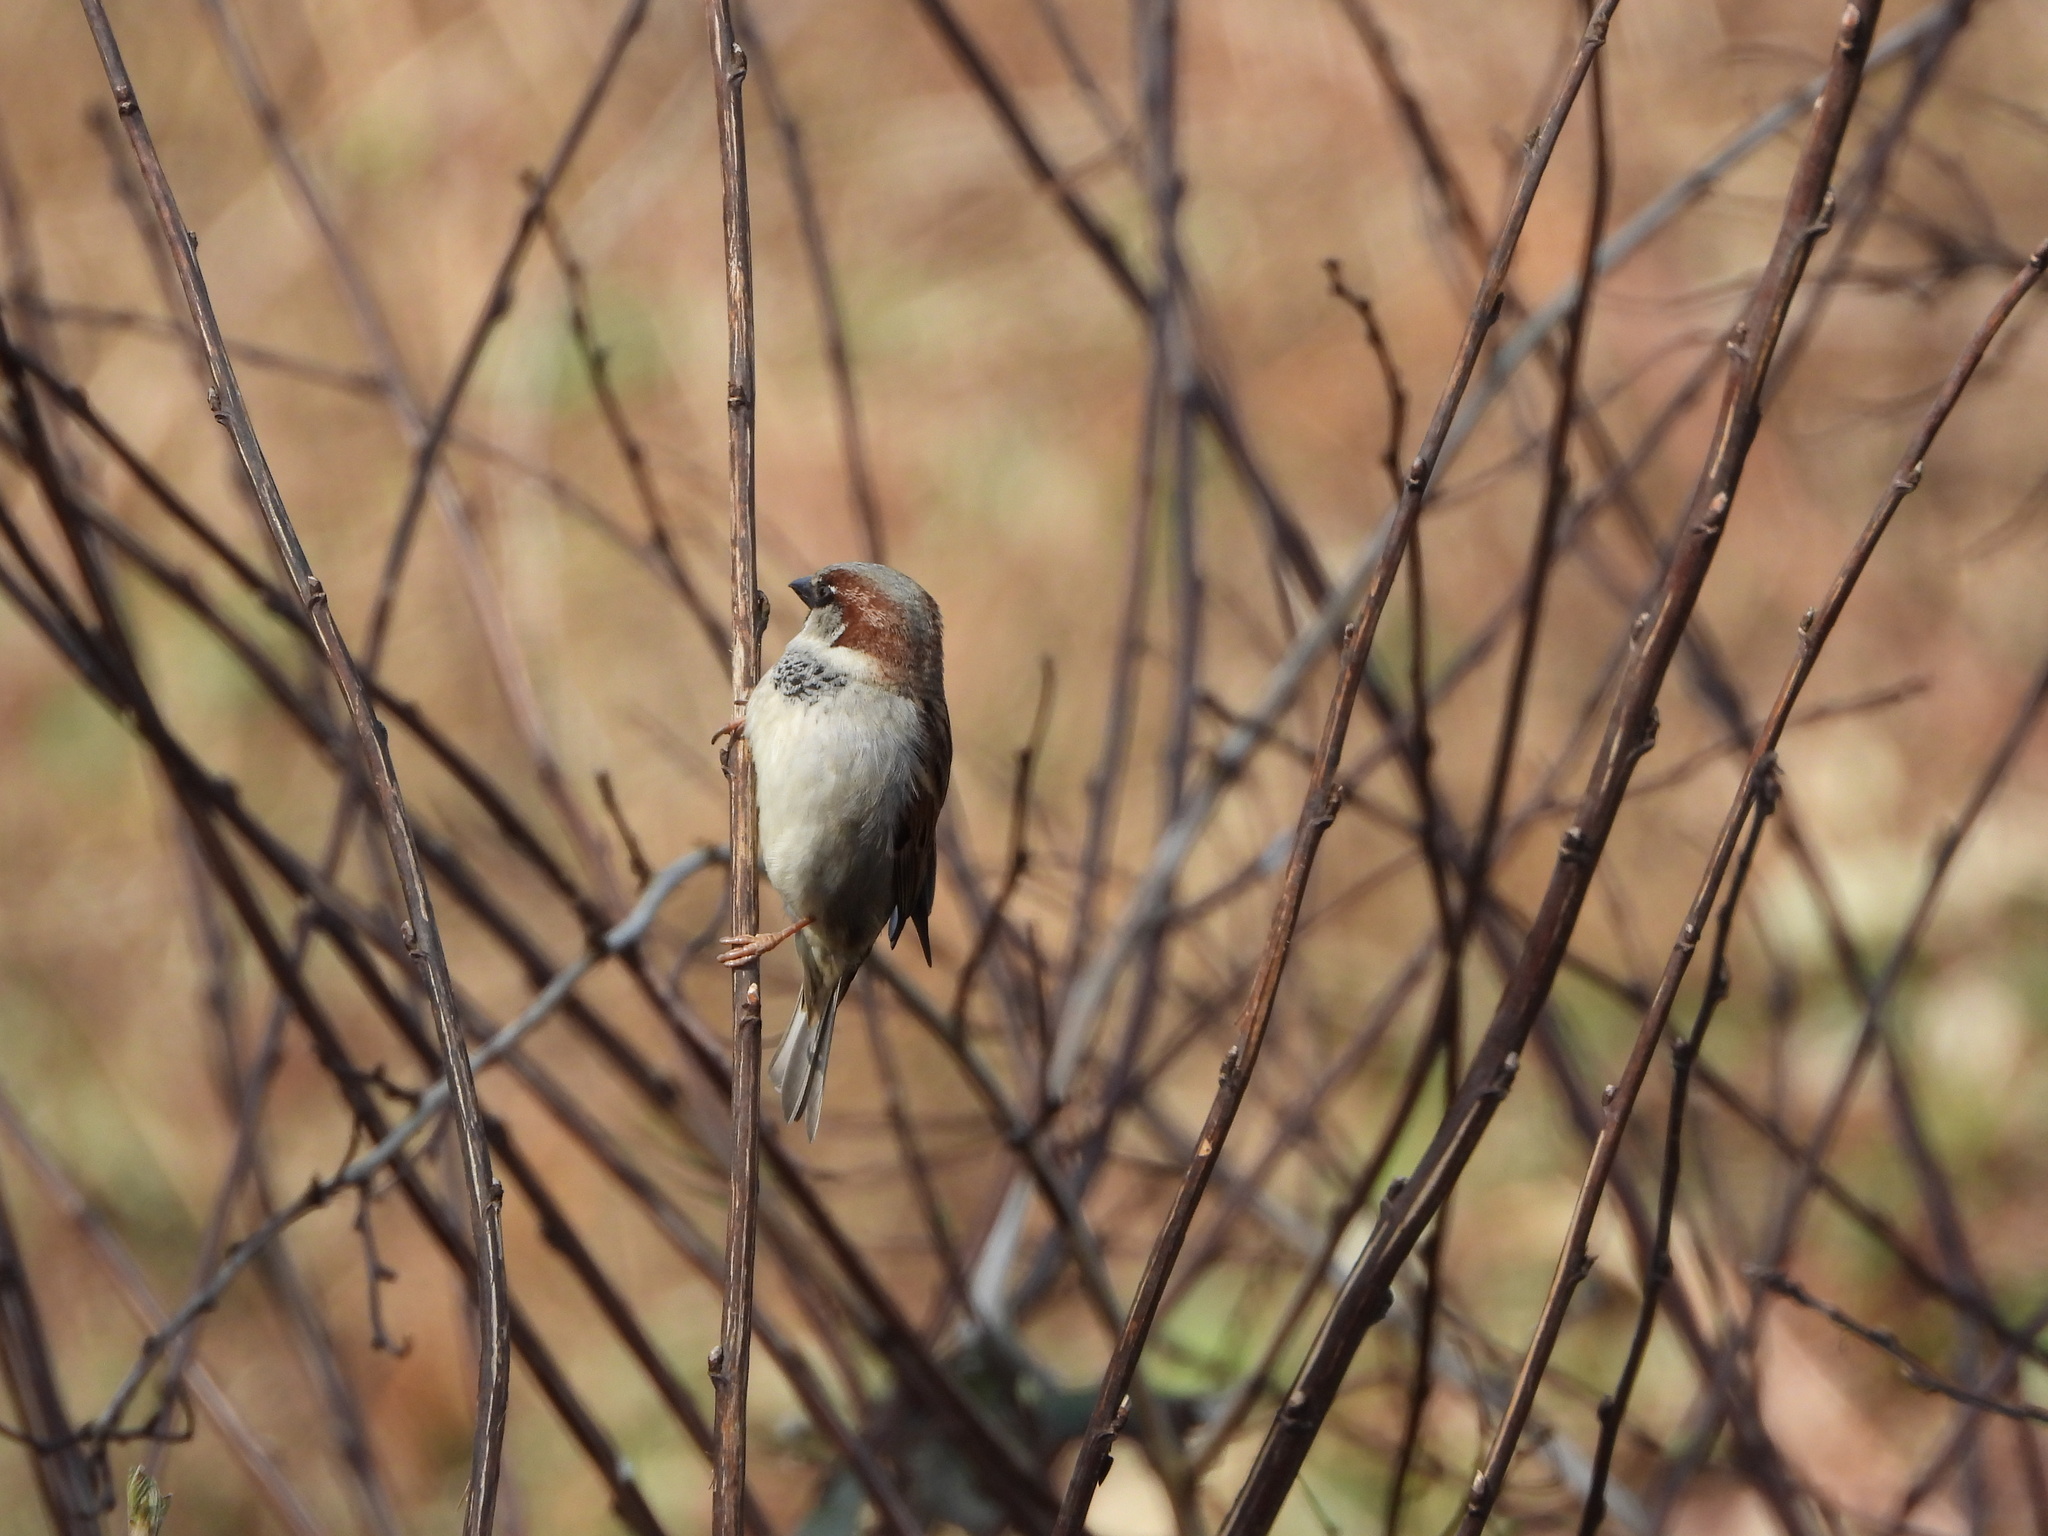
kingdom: Animalia
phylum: Chordata
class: Aves
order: Passeriformes
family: Passeridae
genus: Passer
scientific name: Passer domesticus
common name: House sparrow
